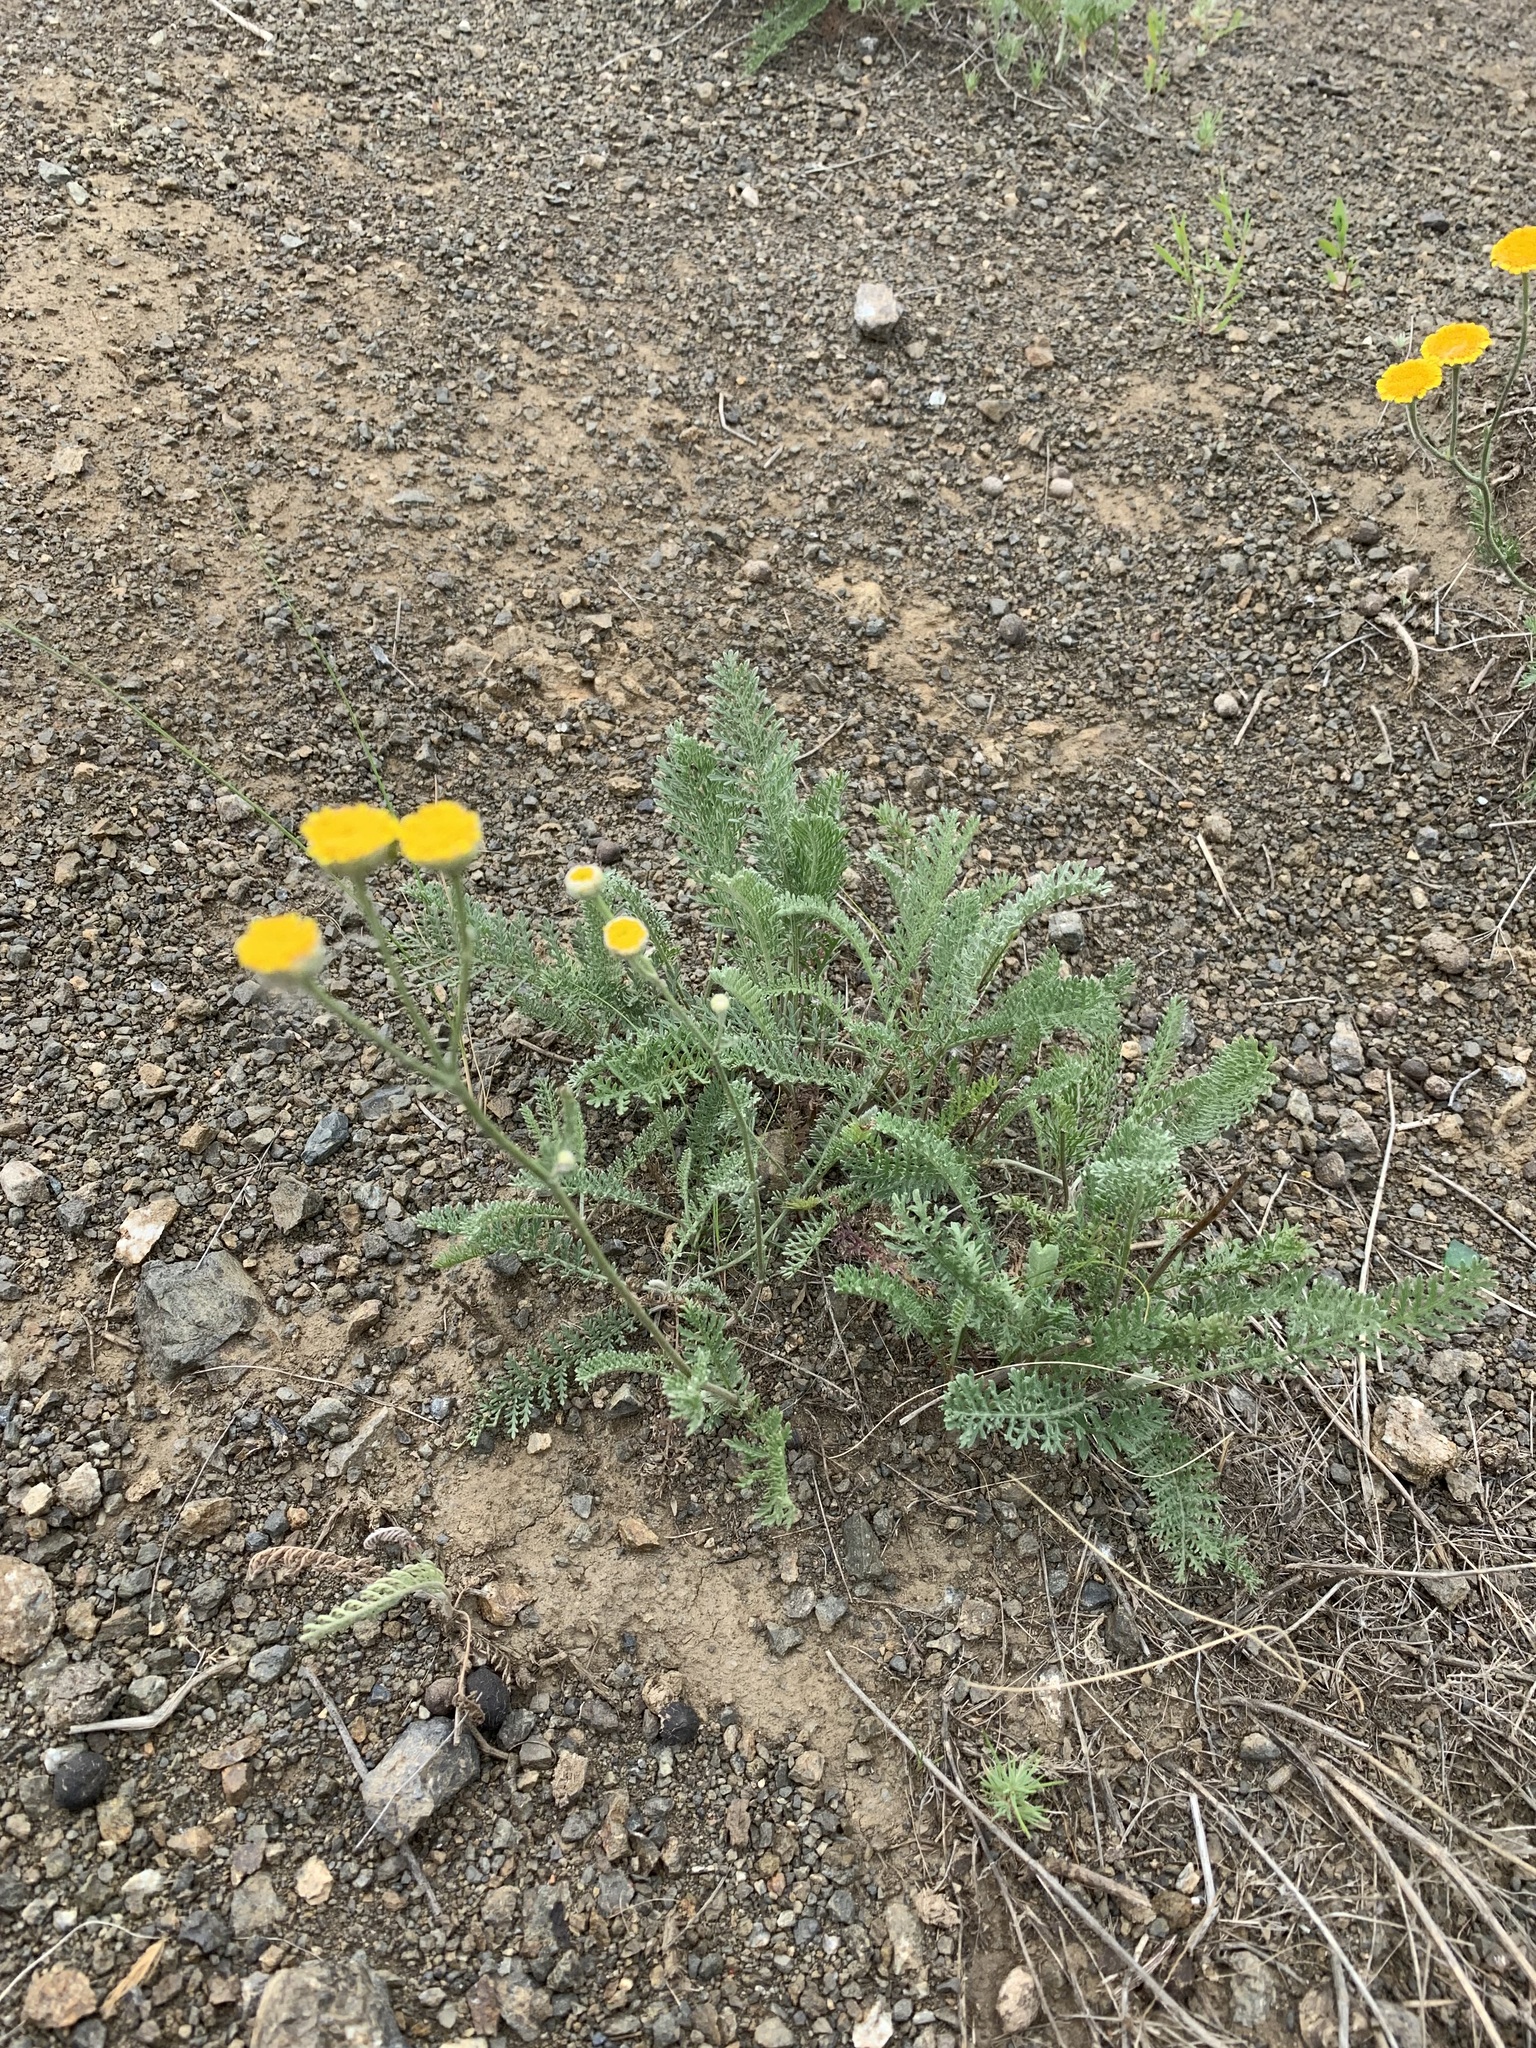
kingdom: Plantae
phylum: Tracheophyta
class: Magnoliopsida
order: Asterales
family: Asteraceae
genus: Tanacetum
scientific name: Tanacetum achilleifolium
